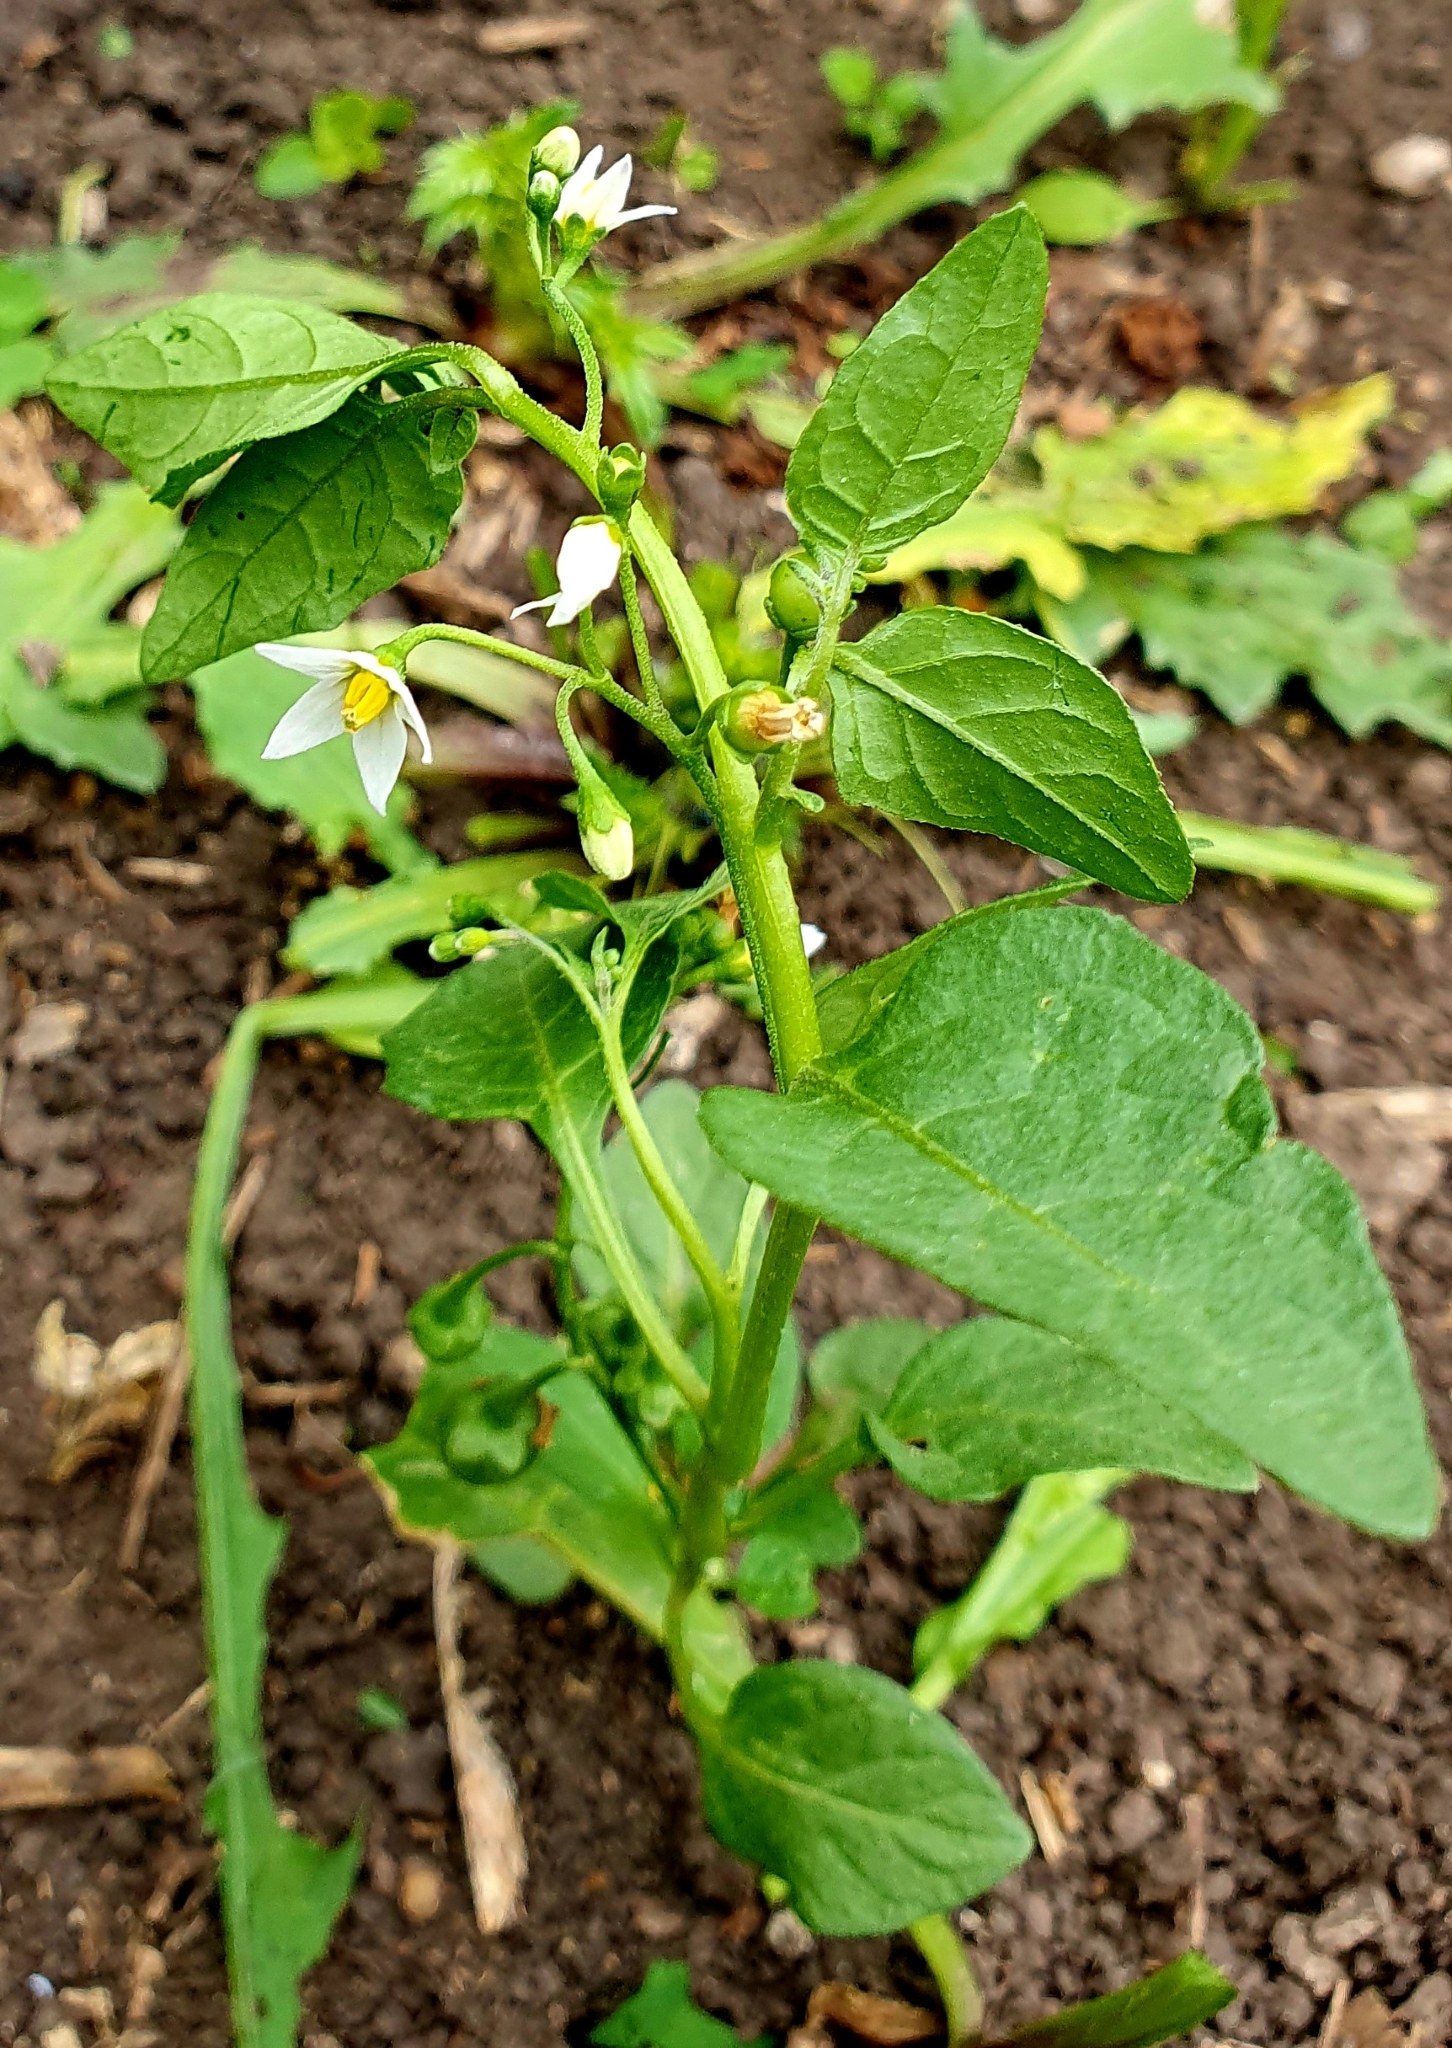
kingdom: Plantae
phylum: Tracheophyta
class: Magnoliopsida
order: Solanales
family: Solanaceae
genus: Solanum
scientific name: Solanum nigrum
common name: Black nightshade
